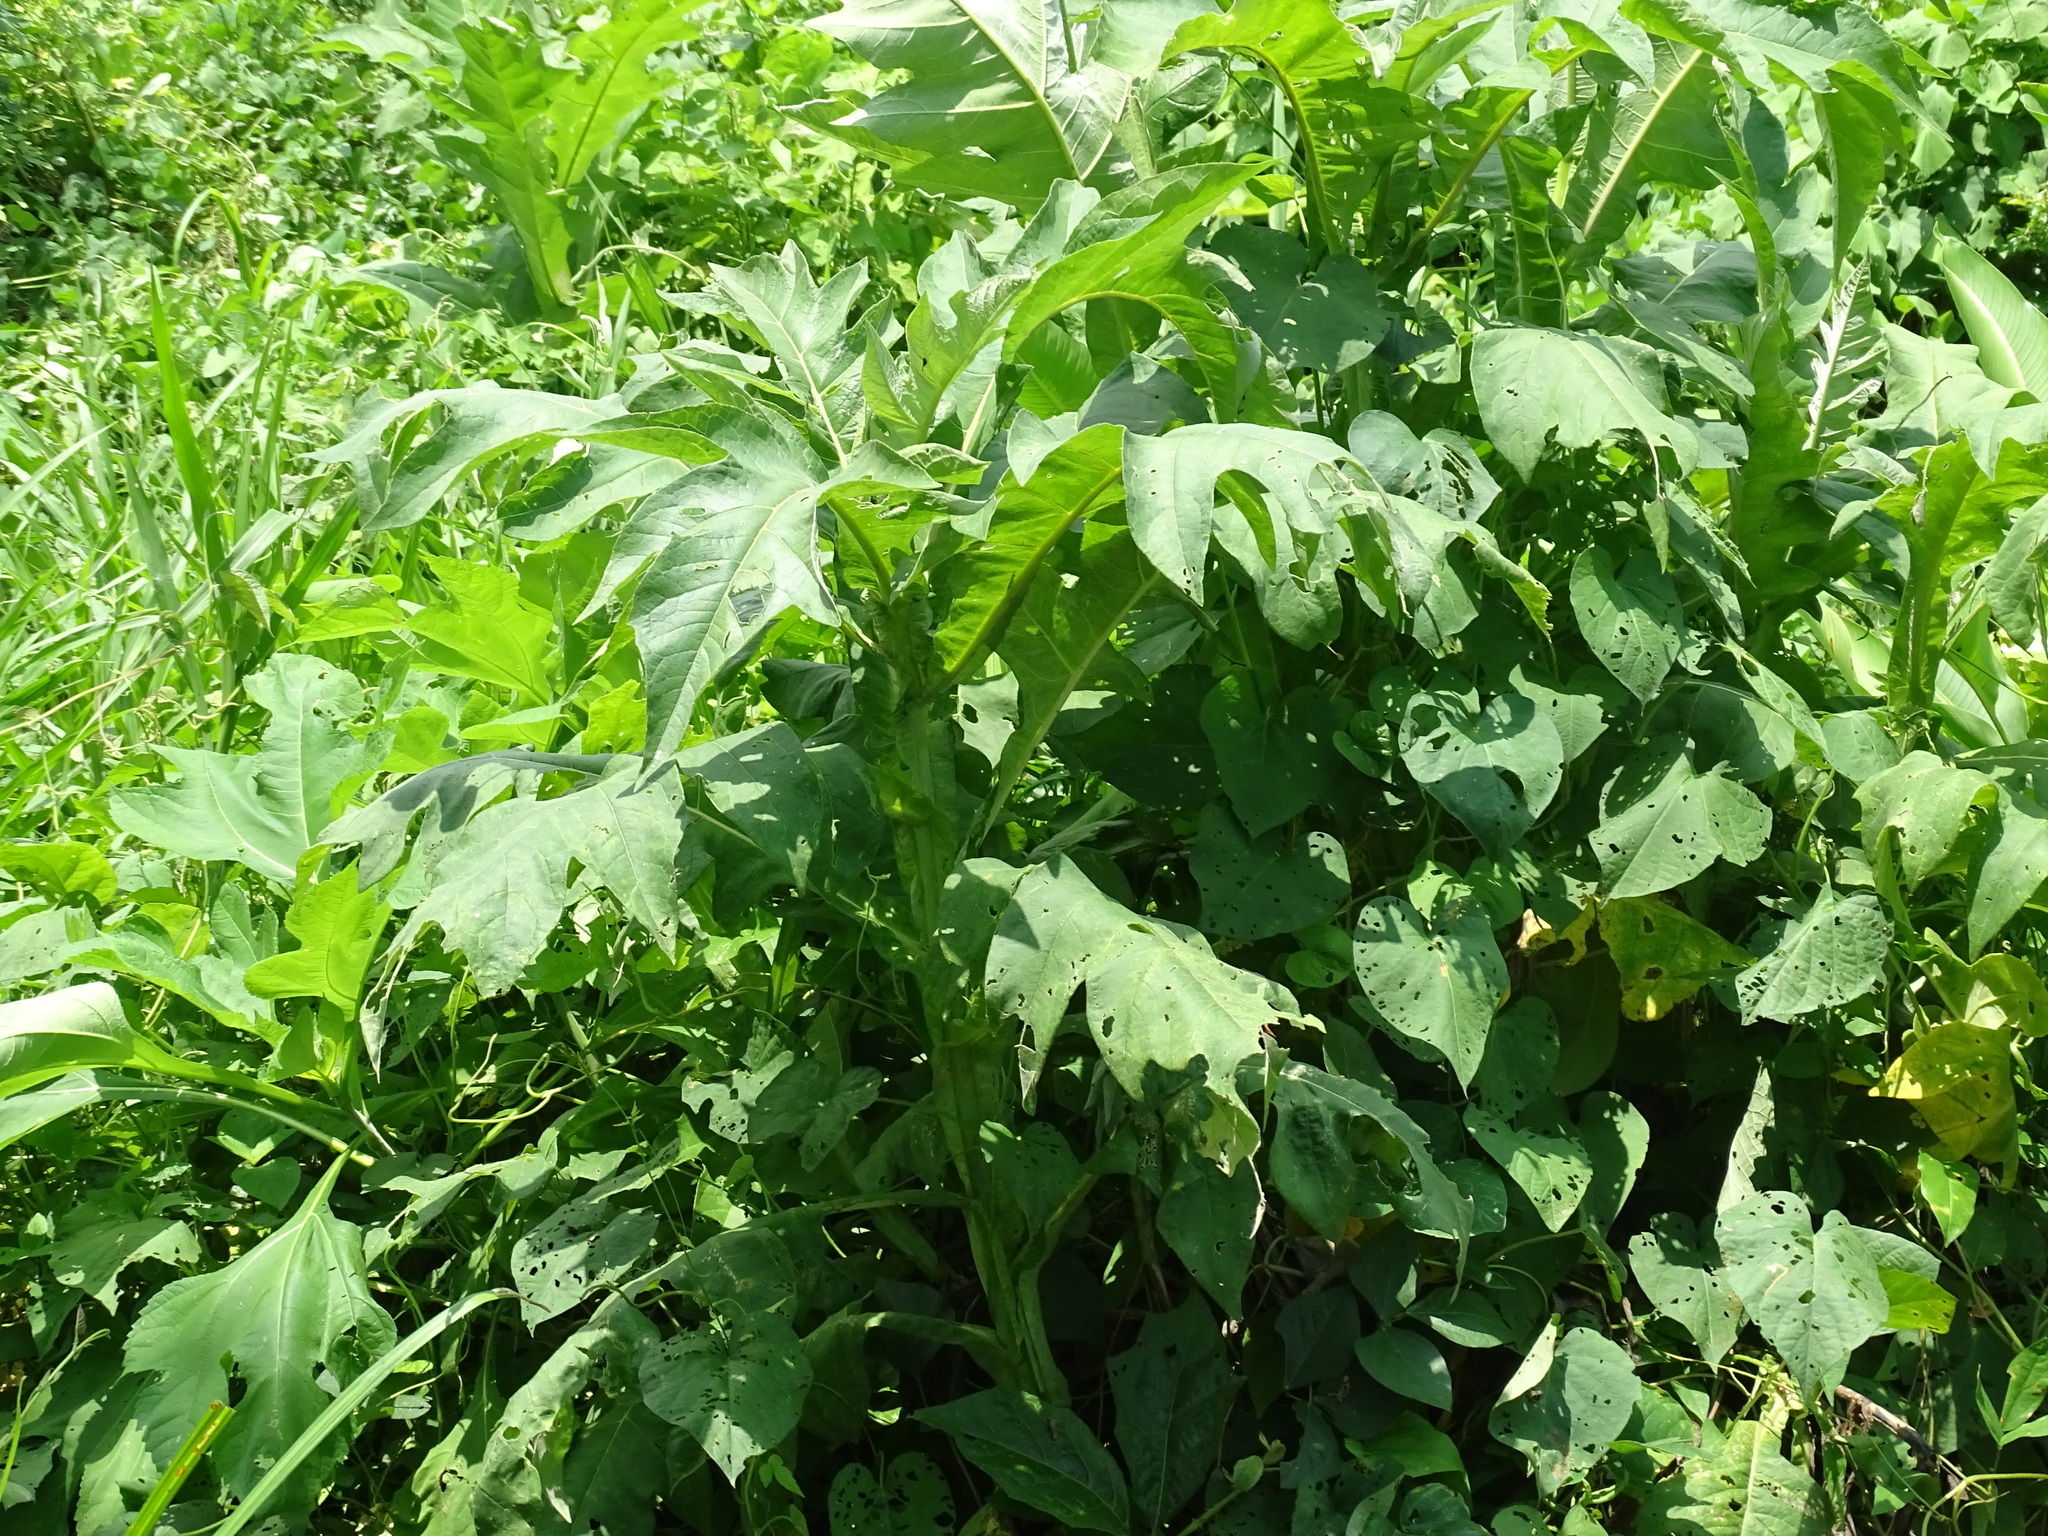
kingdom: Plantae
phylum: Tracheophyta
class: Magnoliopsida
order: Asterales
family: Asteraceae
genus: Verbesina
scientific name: Verbesina turbacensis
